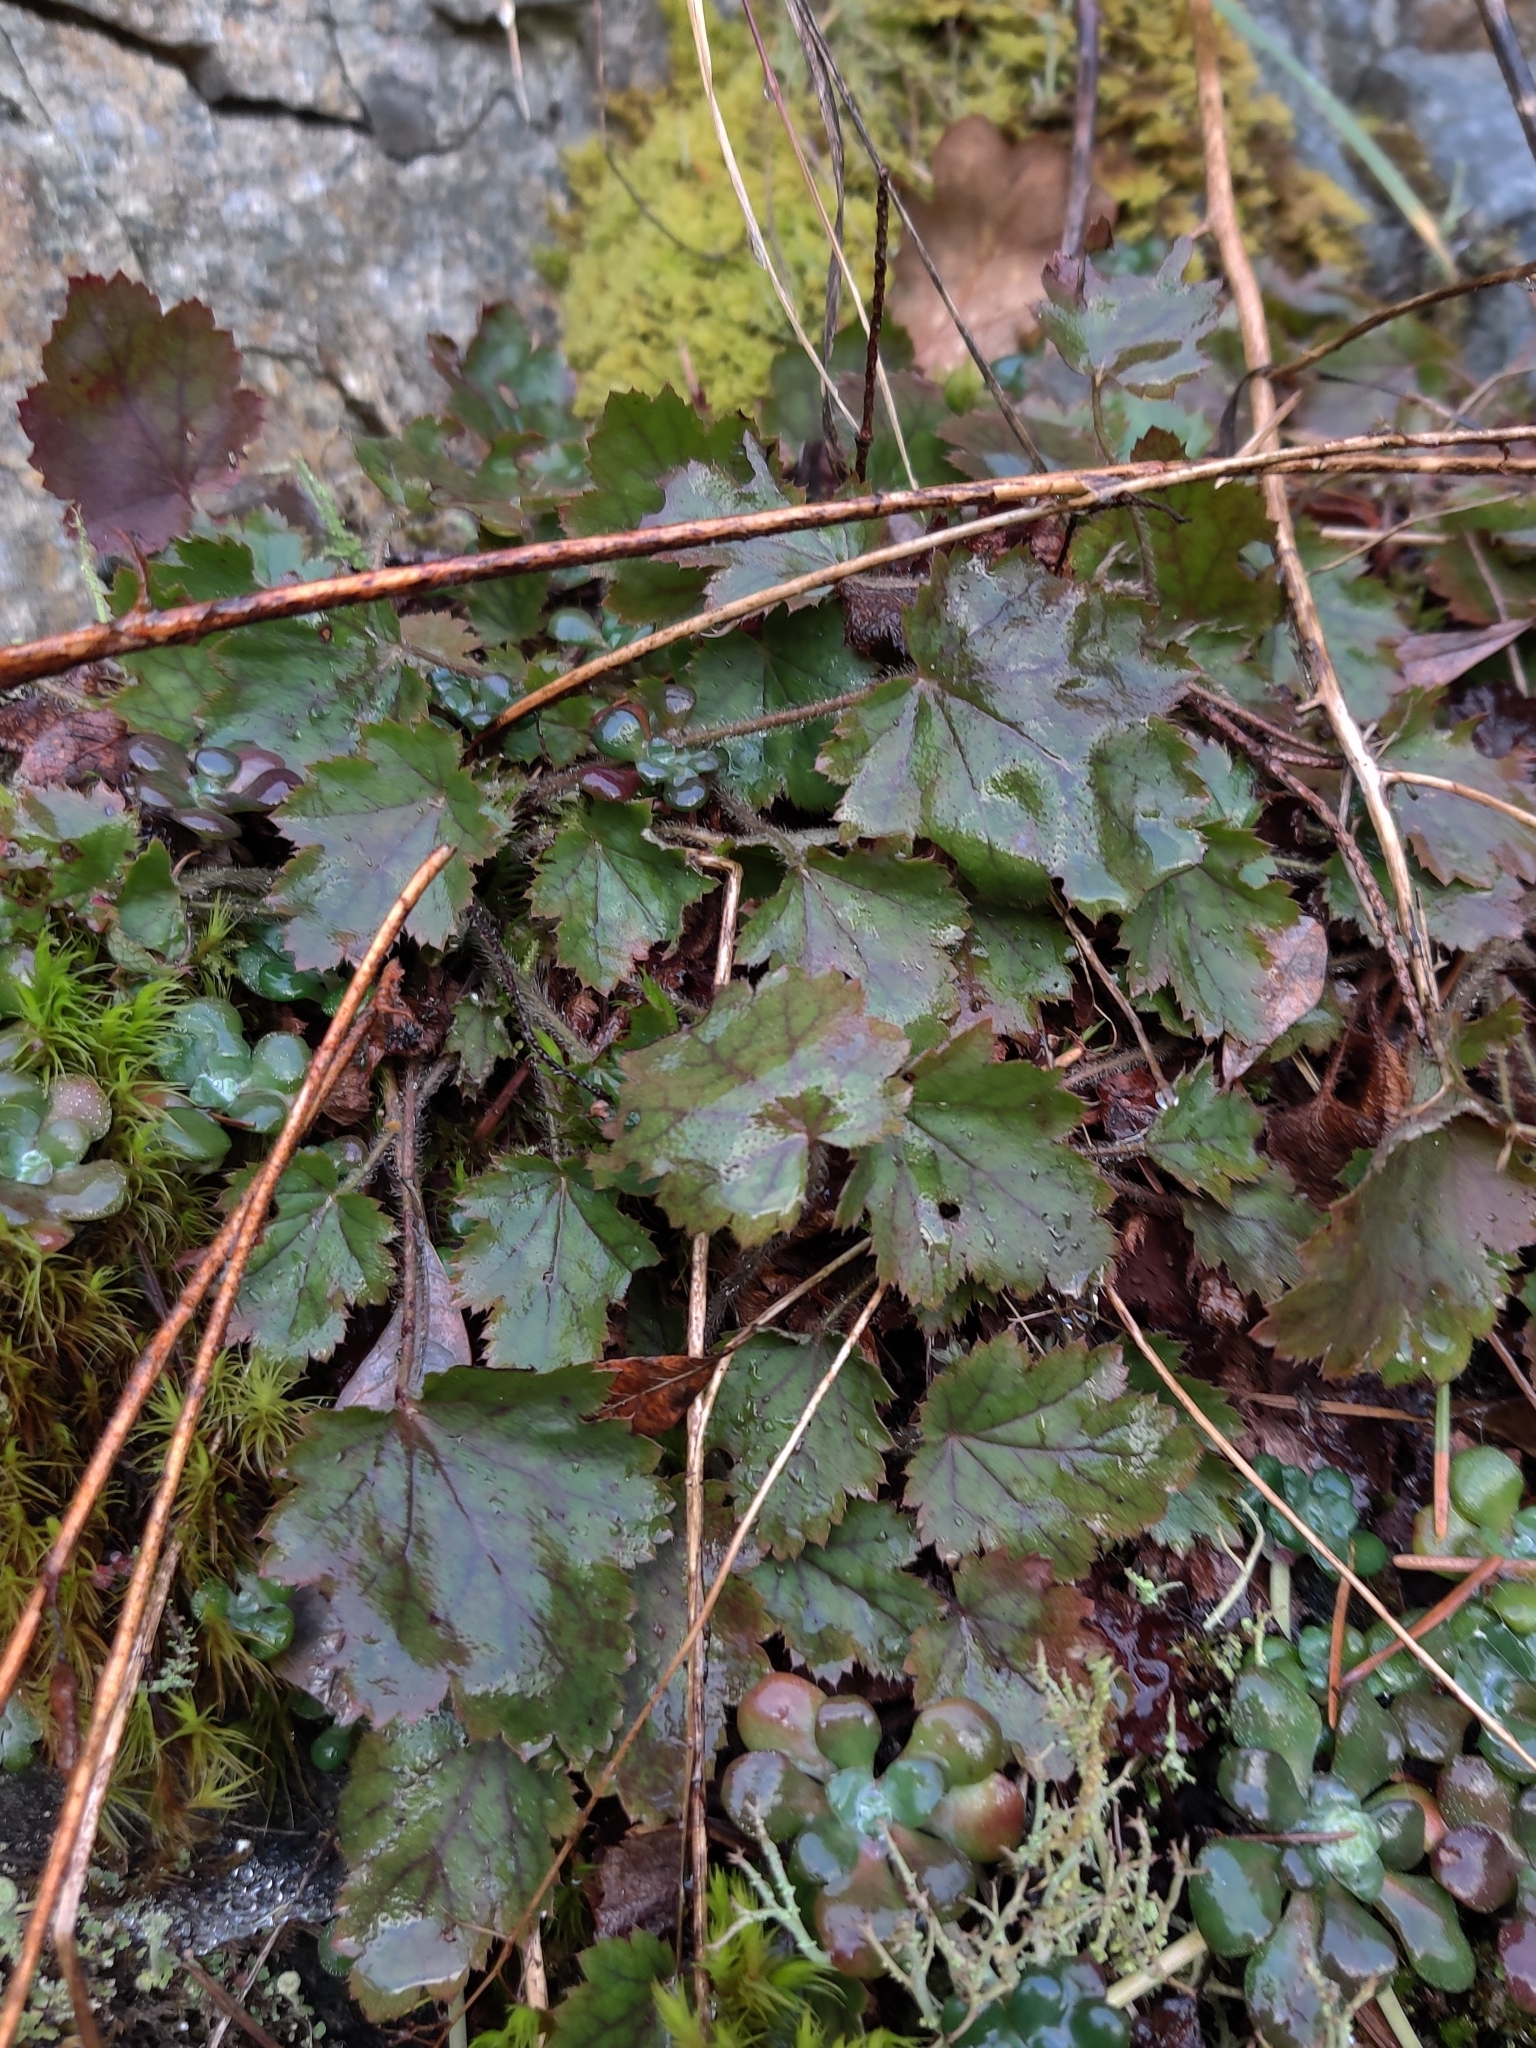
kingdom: Plantae
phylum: Tracheophyta
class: Magnoliopsida
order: Saxifragales
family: Saxifragaceae
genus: Heuchera
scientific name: Heuchera micrantha
